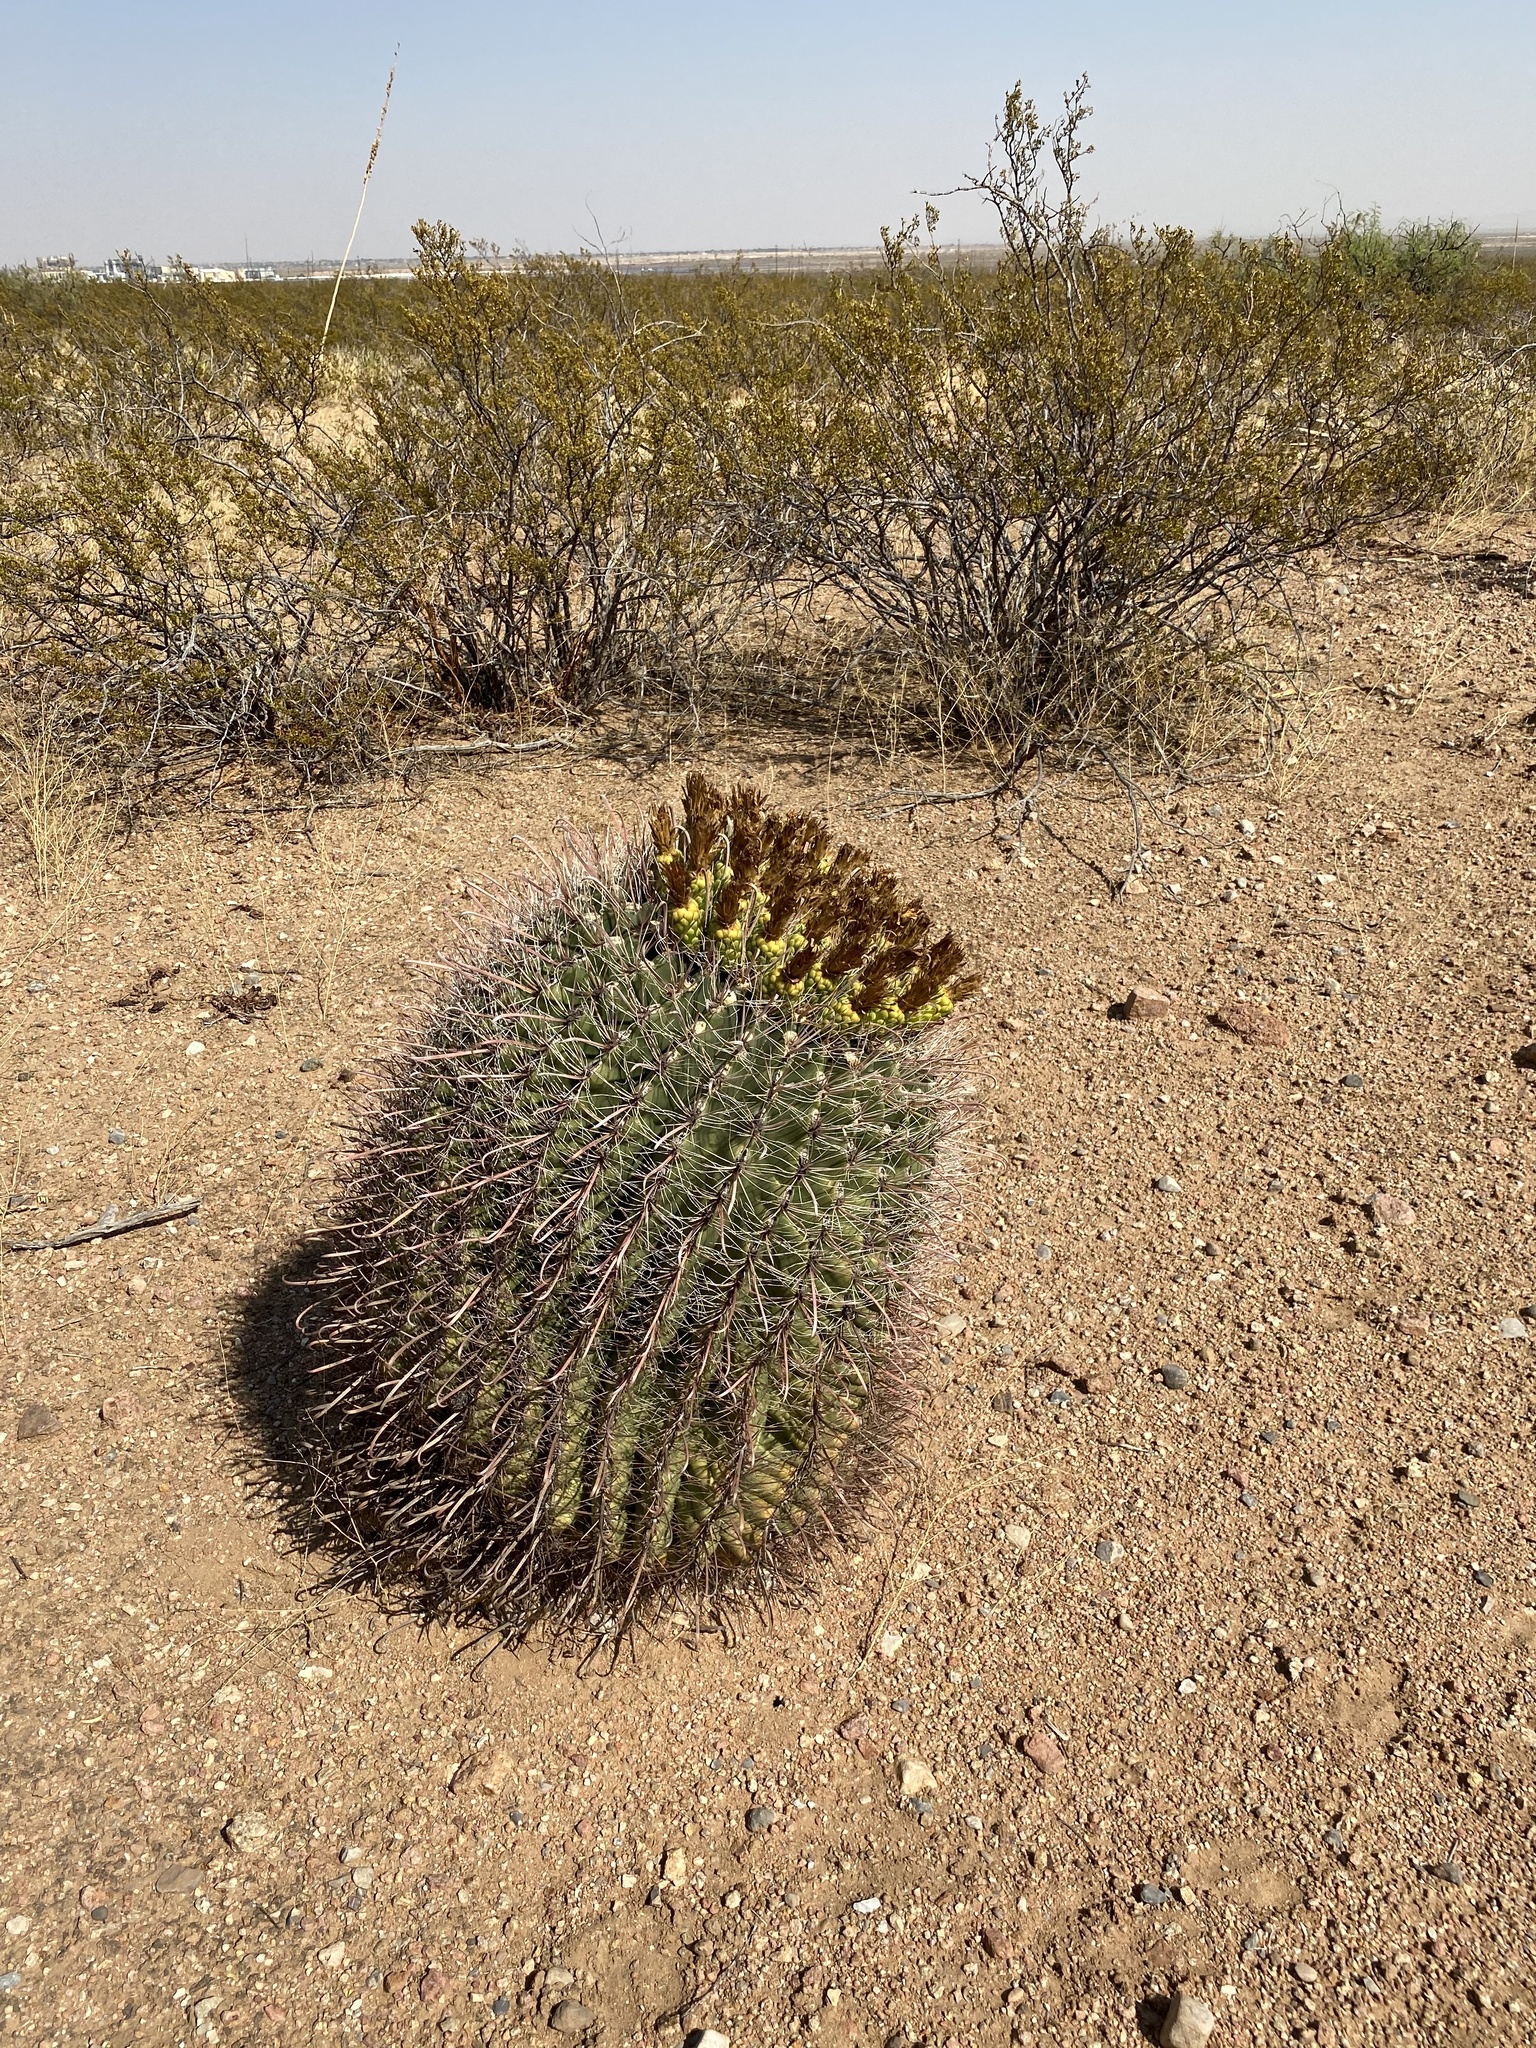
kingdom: Plantae
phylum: Tracheophyta
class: Magnoliopsida
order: Caryophyllales
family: Cactaceae
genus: Ferocactus
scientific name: Ferocactus wislizeni
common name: Candy barrel cactus
